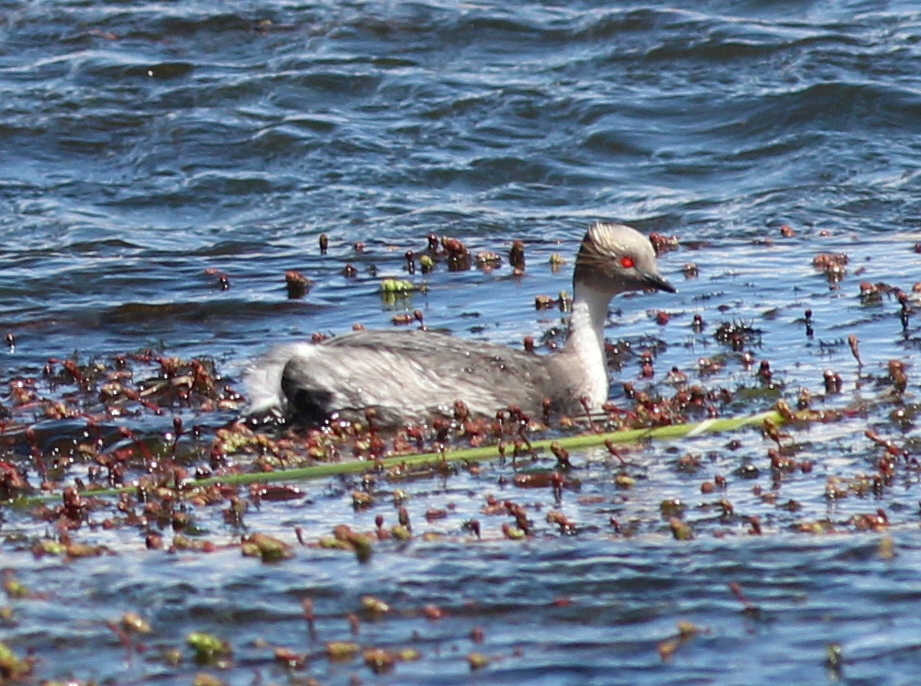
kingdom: Animalia
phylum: Chordata
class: Aves
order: Podicipediformes
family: Podicipedidae
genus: Podiceps
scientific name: Podiceps occipitalis
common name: Silvery grebe
